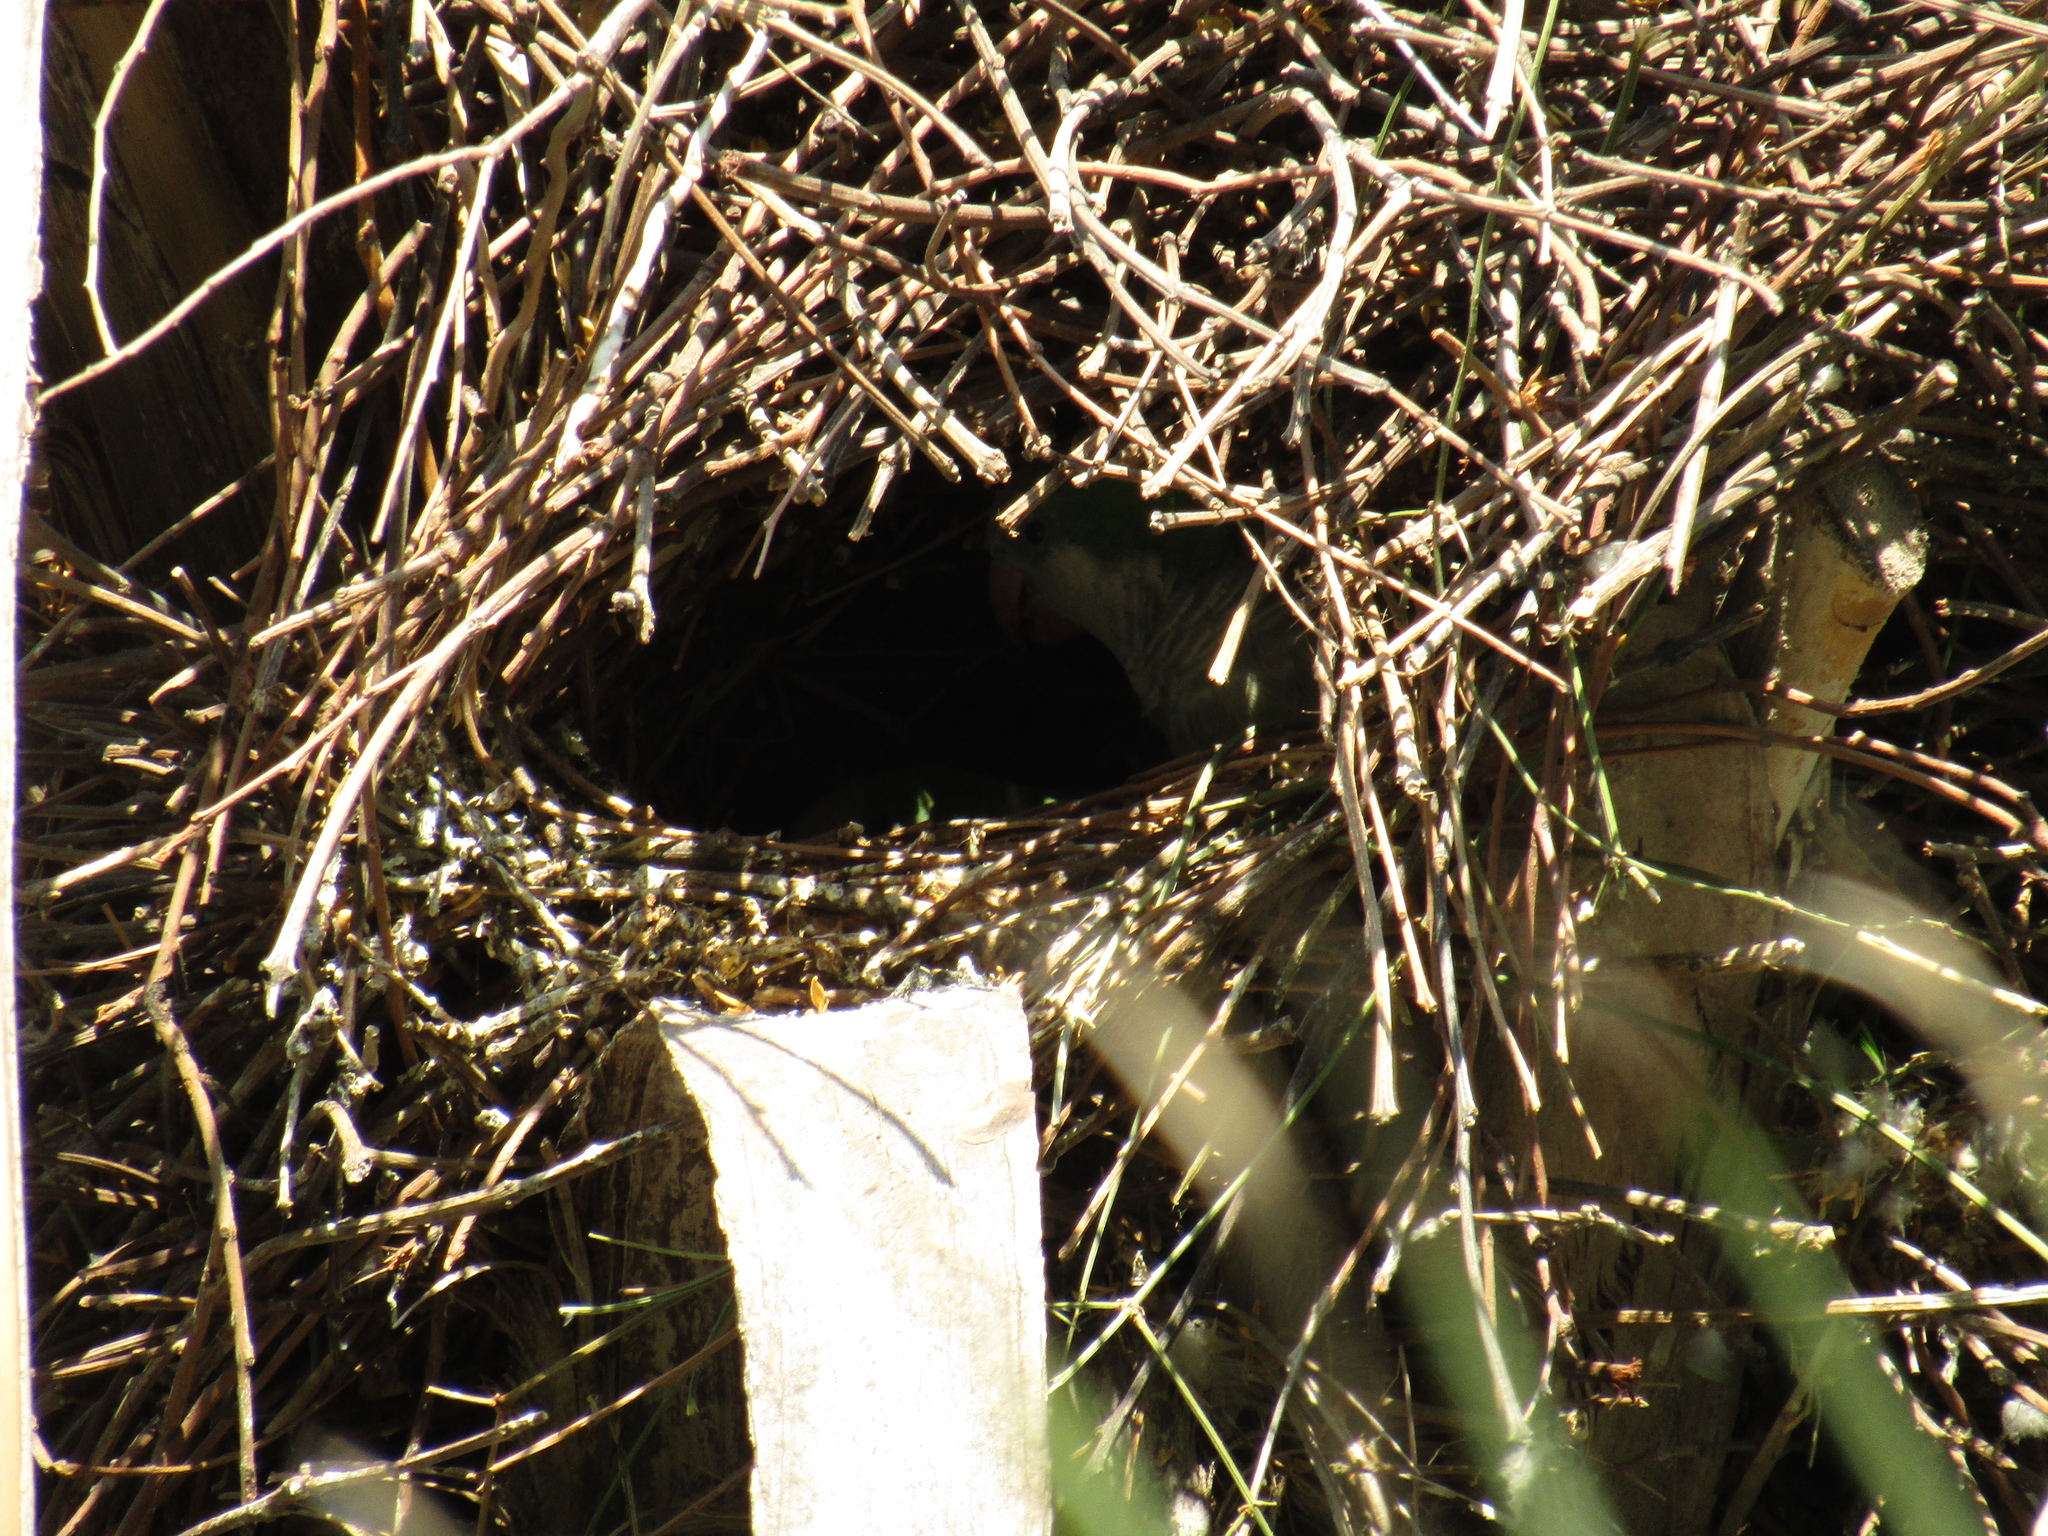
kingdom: Animalia
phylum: Chordata
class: Aves
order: Psittaciformes
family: Psittacidae
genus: Myiopsitta
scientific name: Myiopsitta monachus
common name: Monk parakeet
